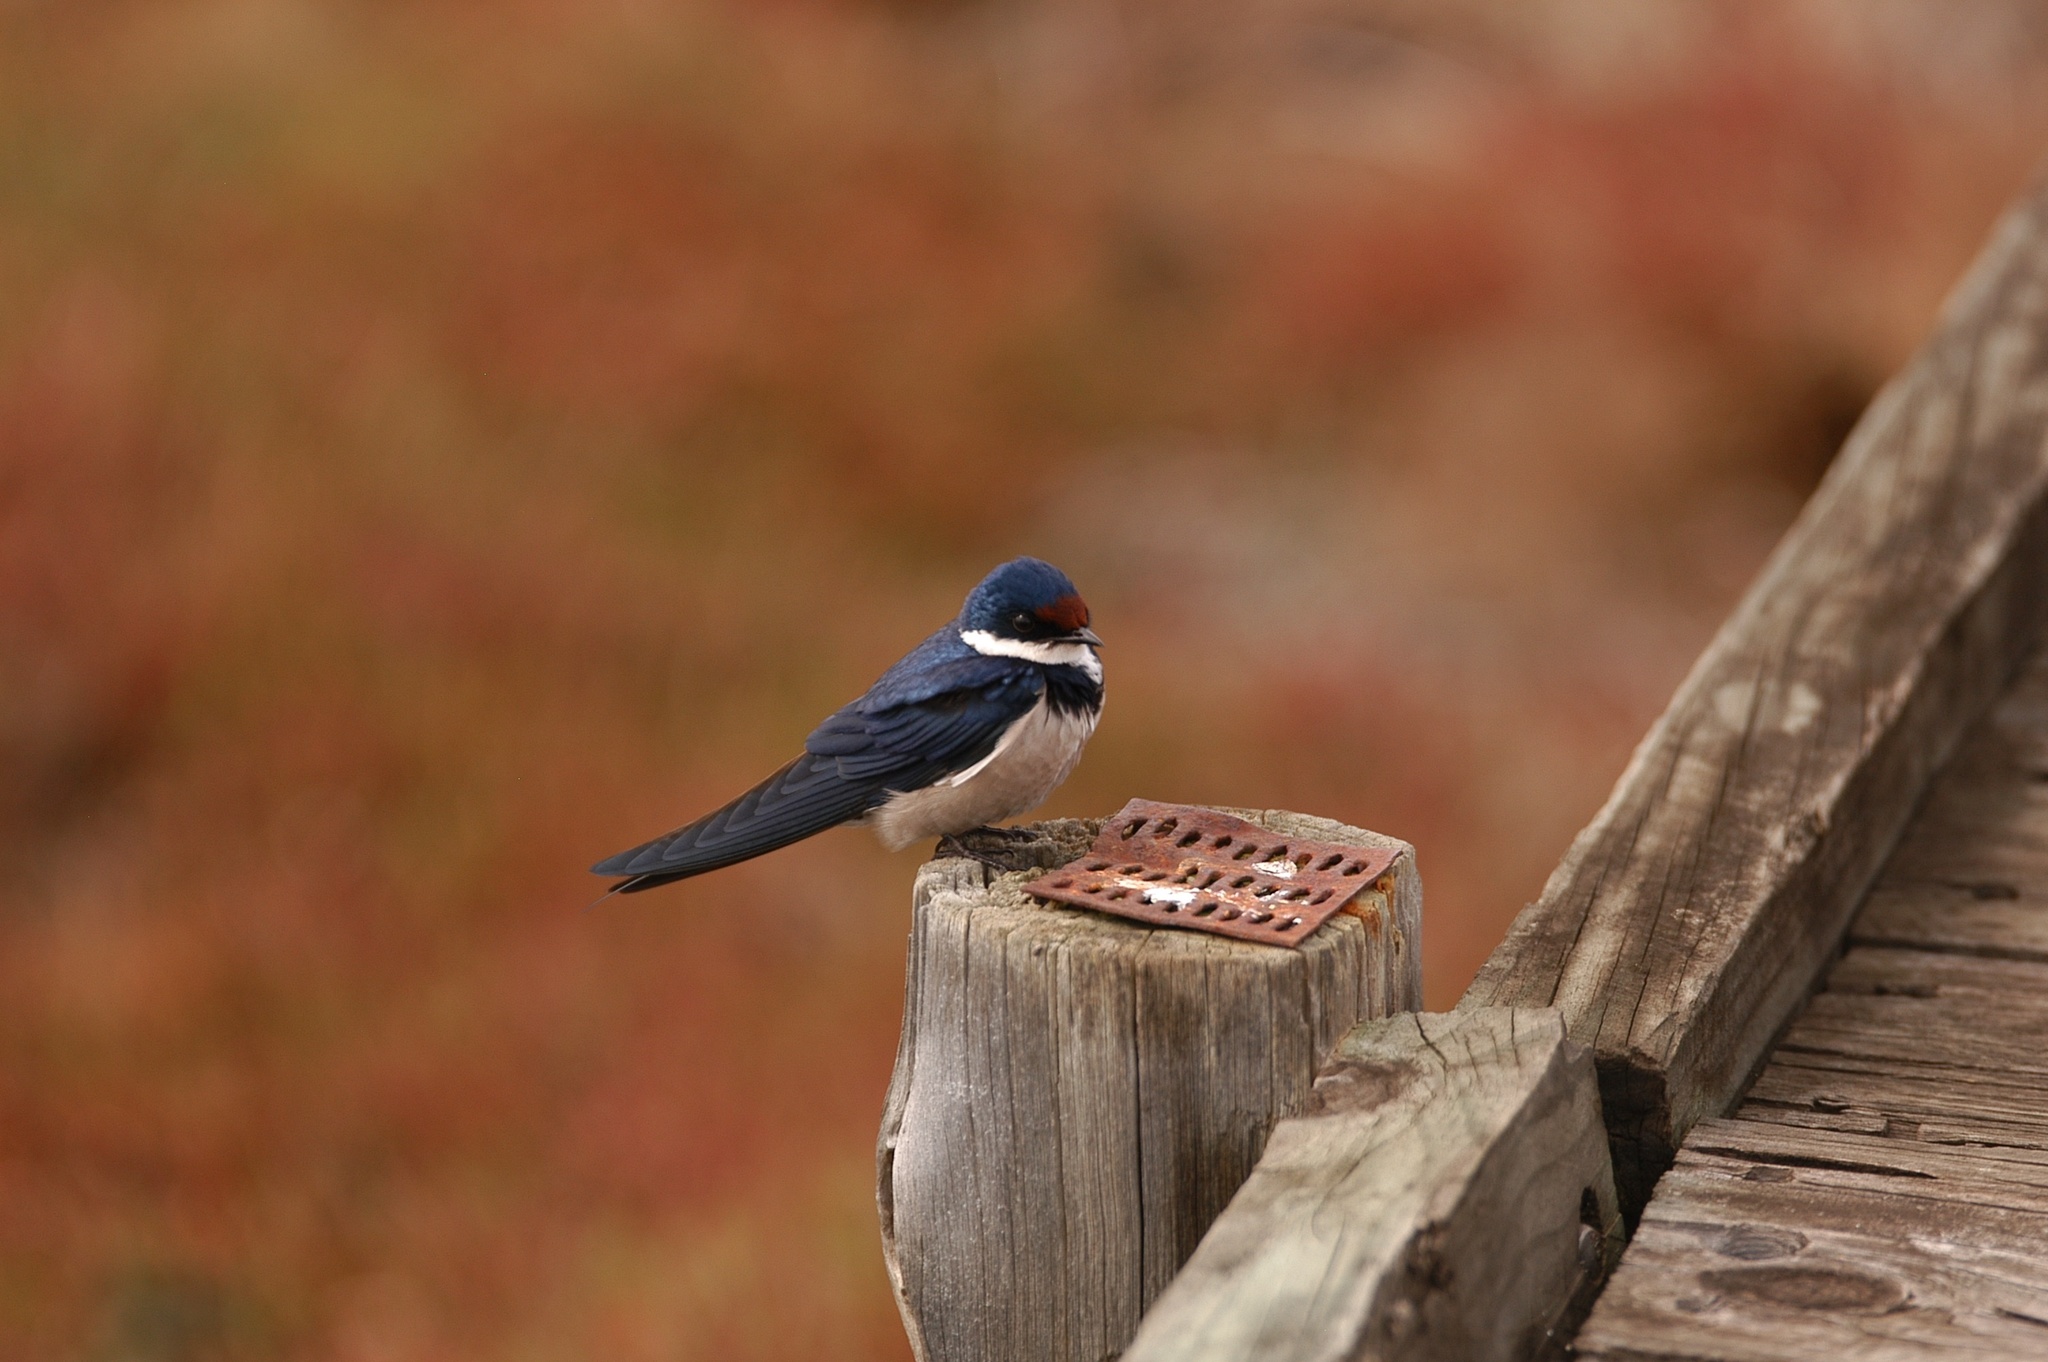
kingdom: Animalia
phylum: Chordata
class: Aves
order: Passeriformes
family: Hirundinidae
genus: Hirundo
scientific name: Hirundo albigularis
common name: White-throated swallow
